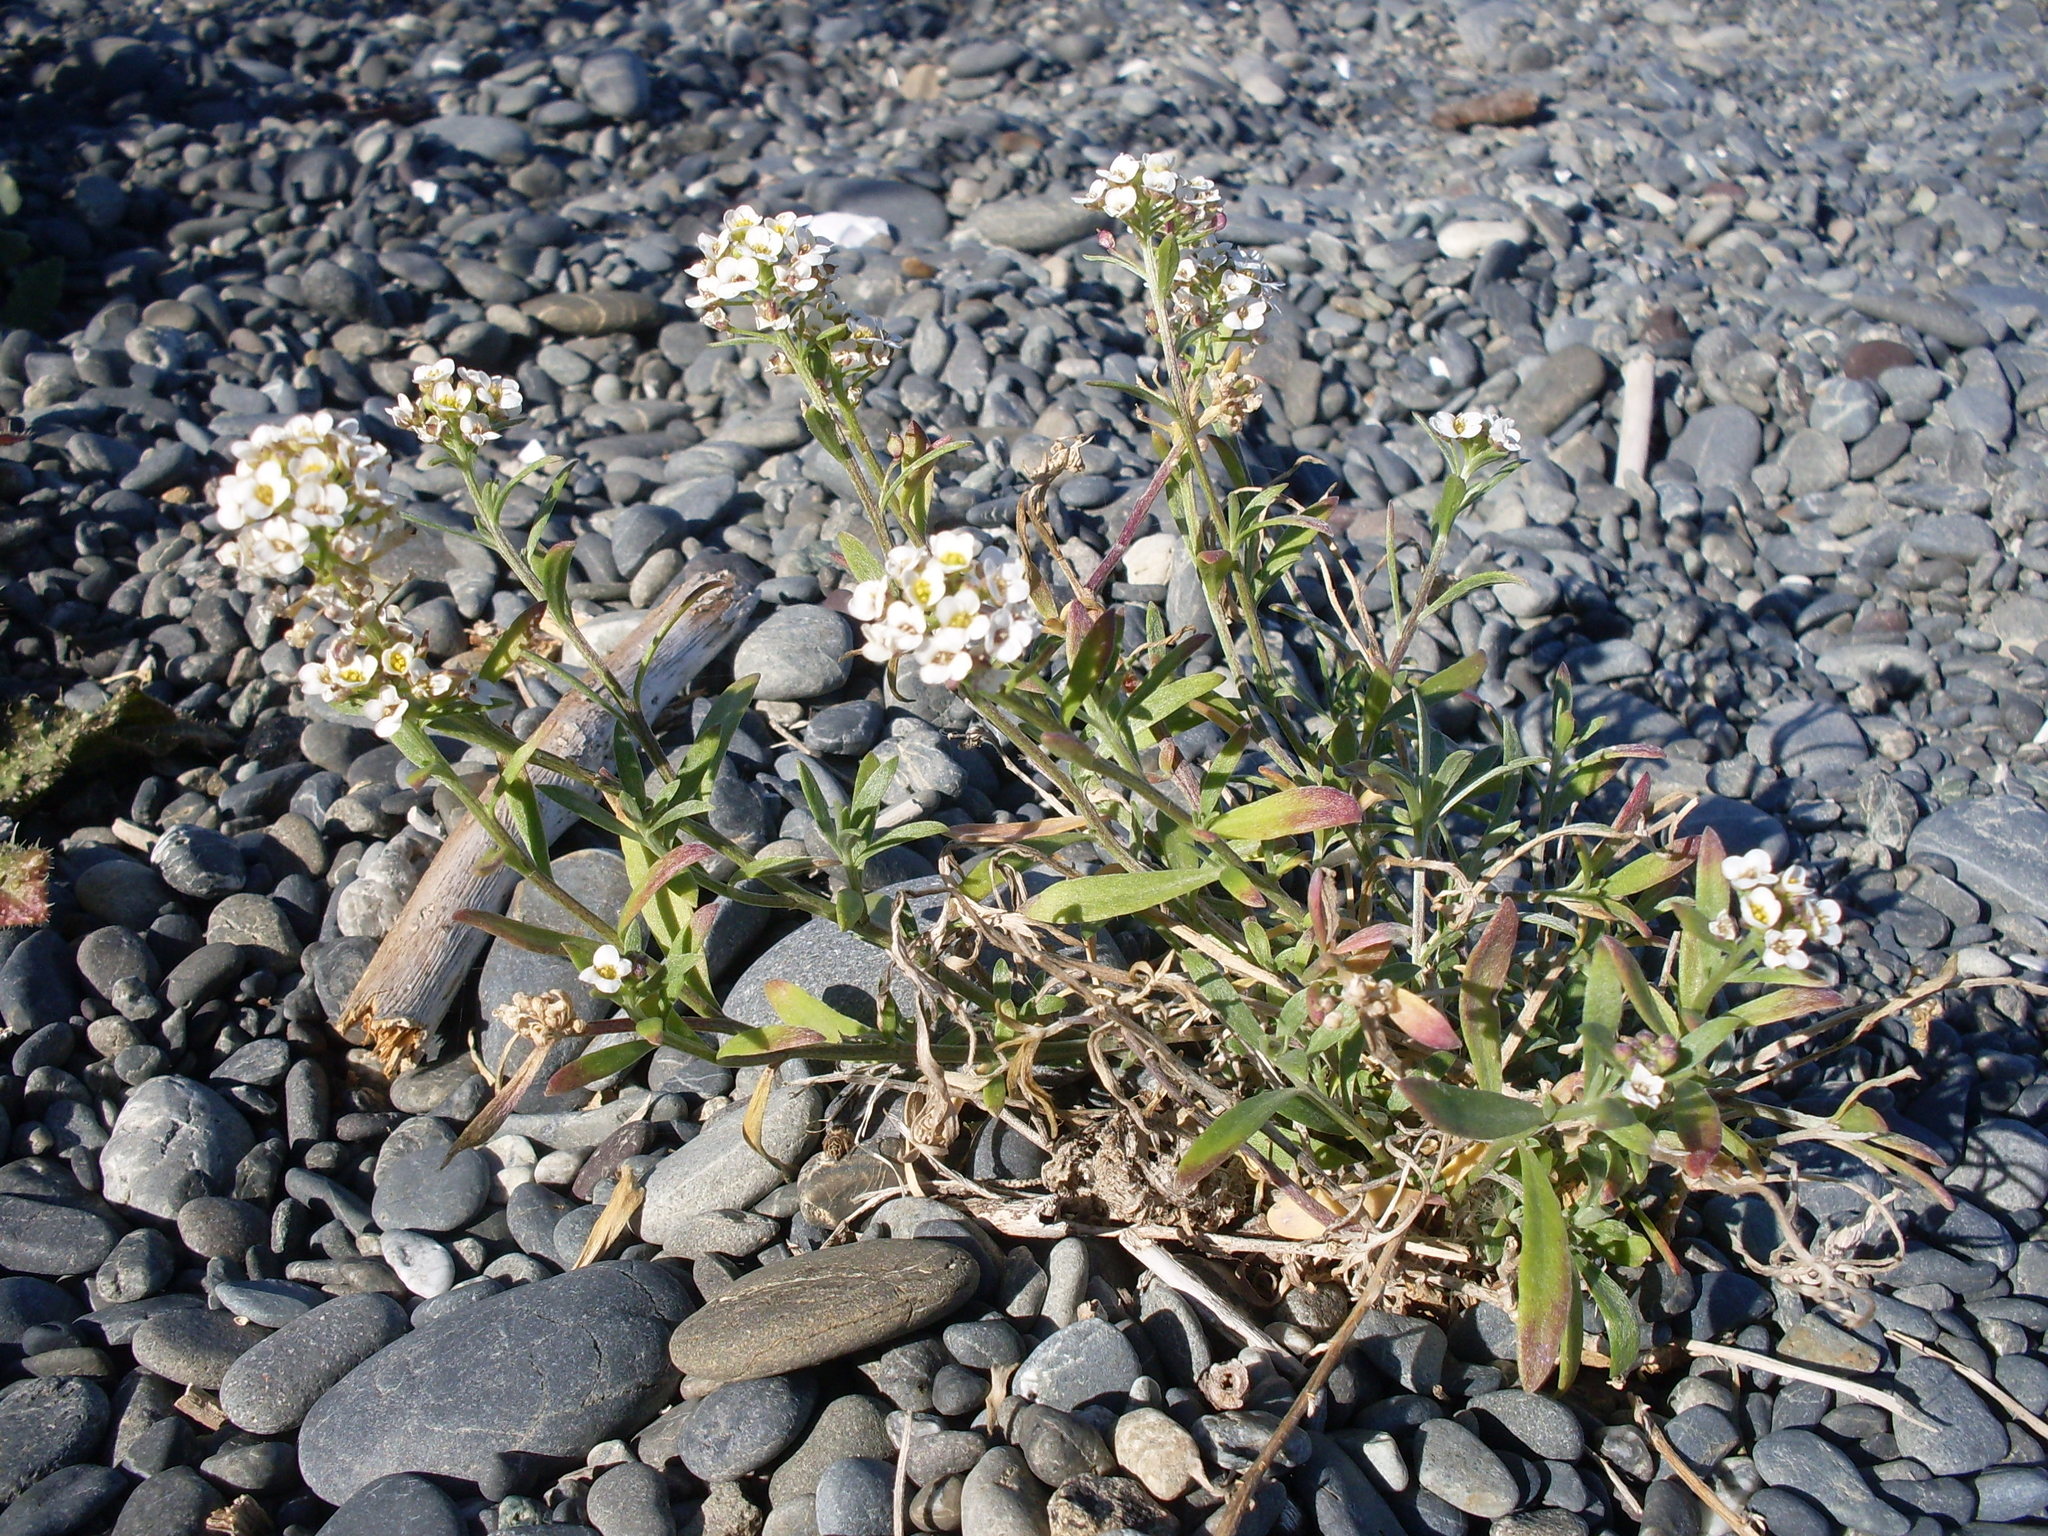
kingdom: Plantae
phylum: Tracheophyta
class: Magnoliopsida
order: Brassicales
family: Brassicaceae
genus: Lobularia
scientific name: Lobularia maritima
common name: Sweet alison
